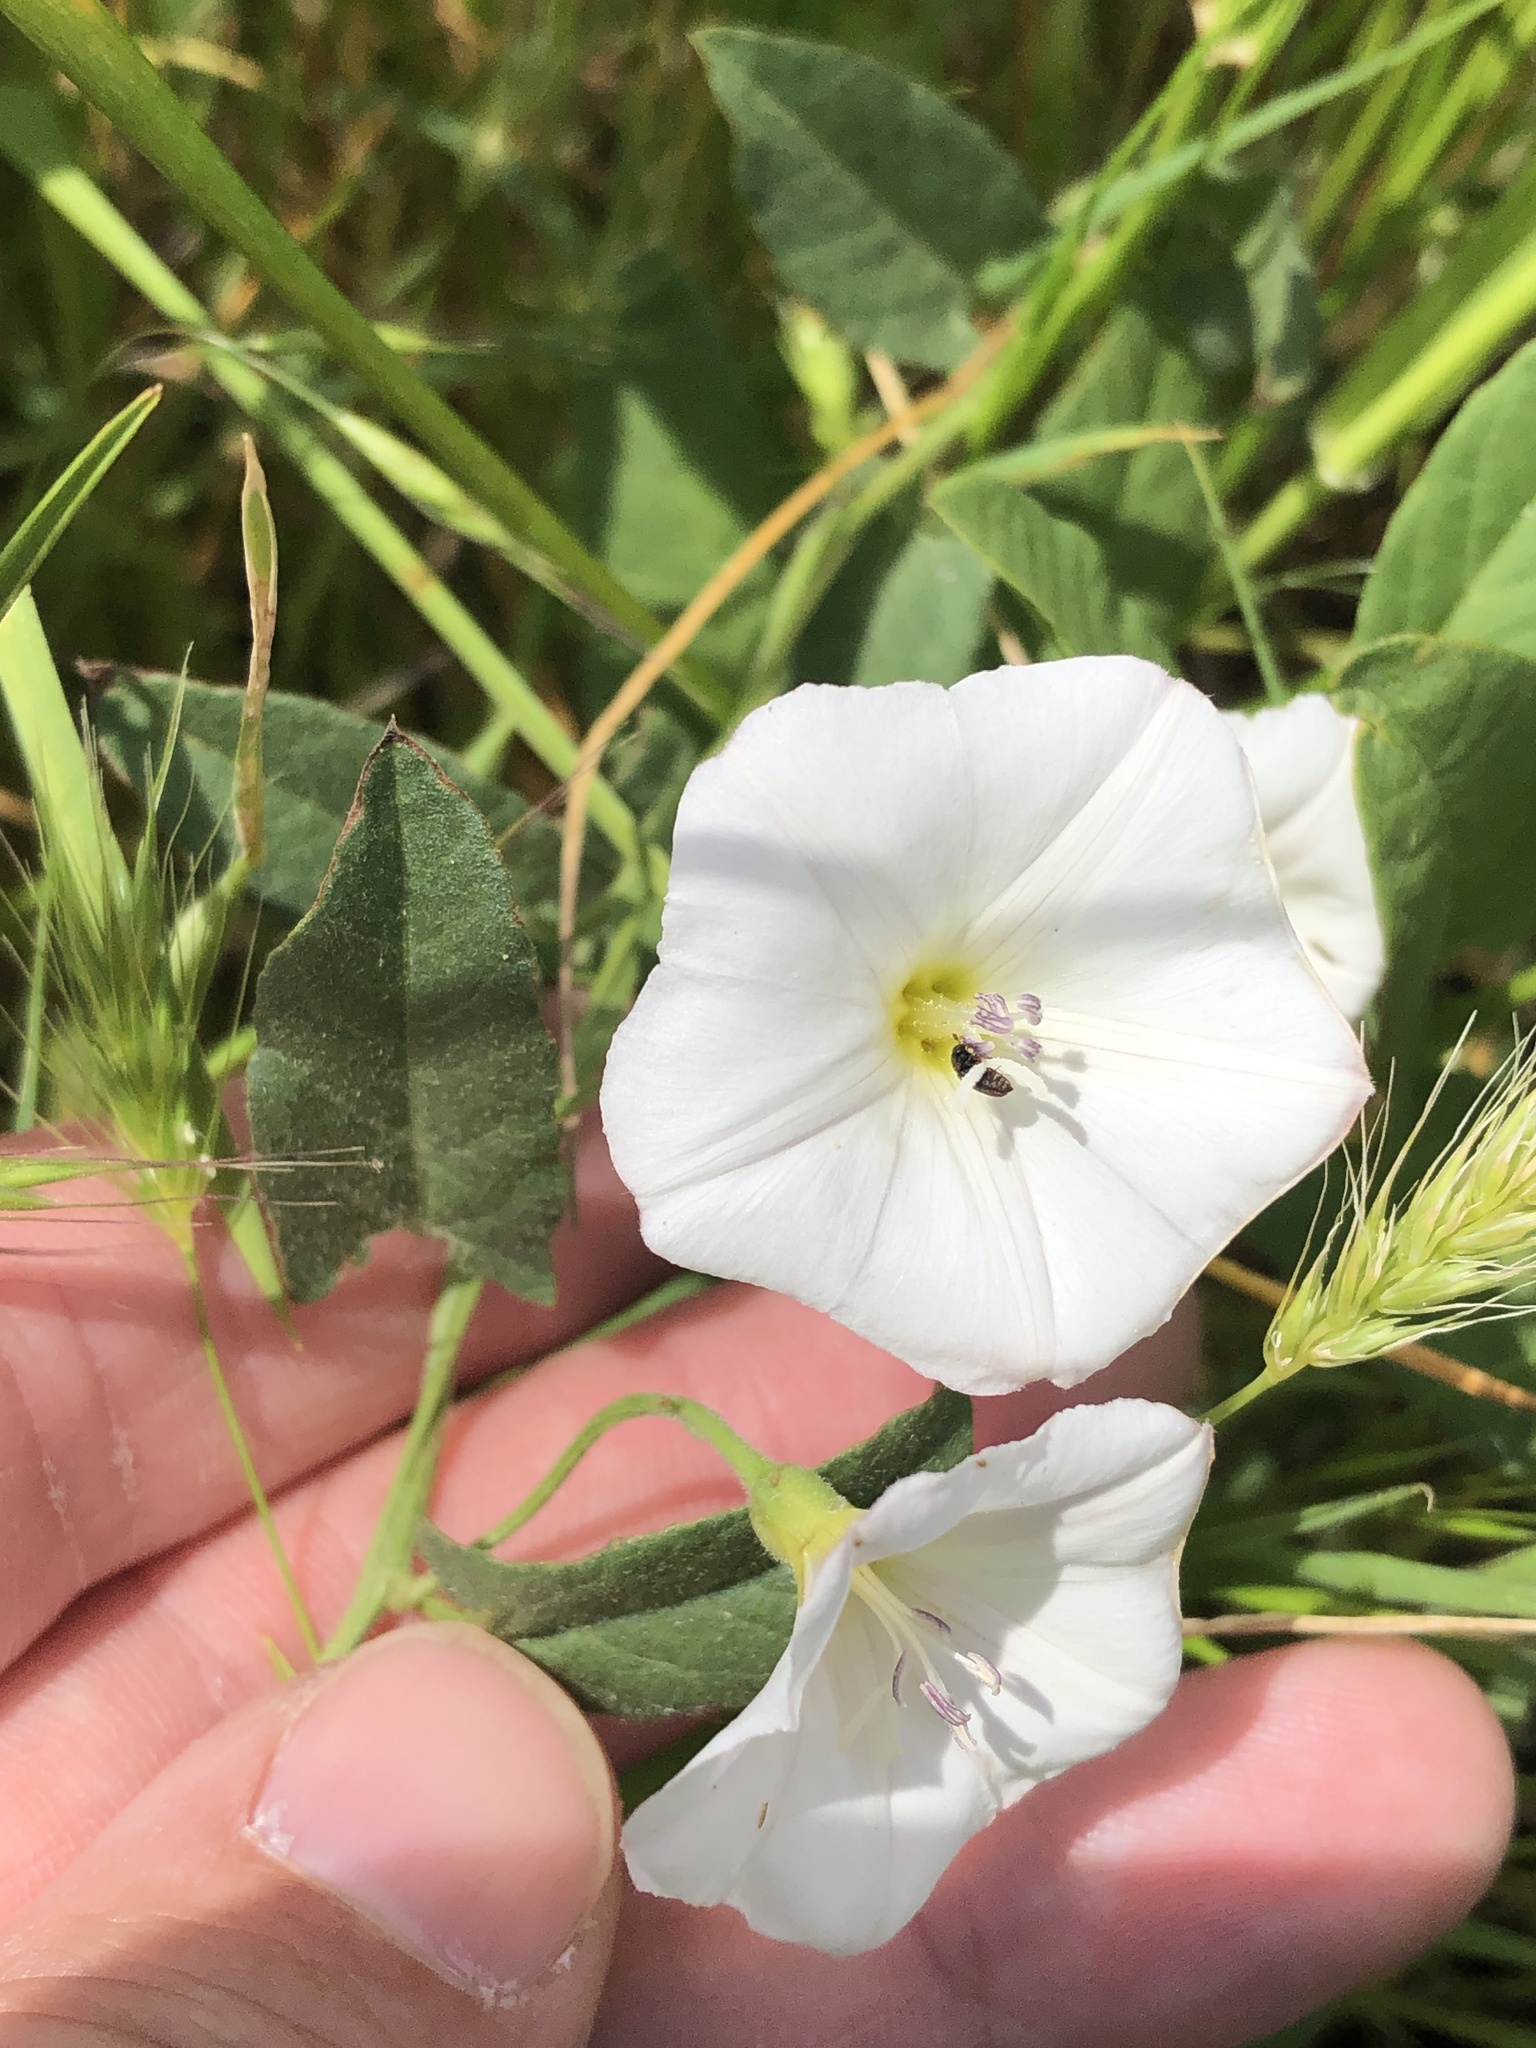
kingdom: Plantae
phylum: Tracheophyta
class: Magnoliopsida
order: Solanales
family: Convolvulaceae
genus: Convolvulus
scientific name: Convolvulus arvensis
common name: Field bindweed
